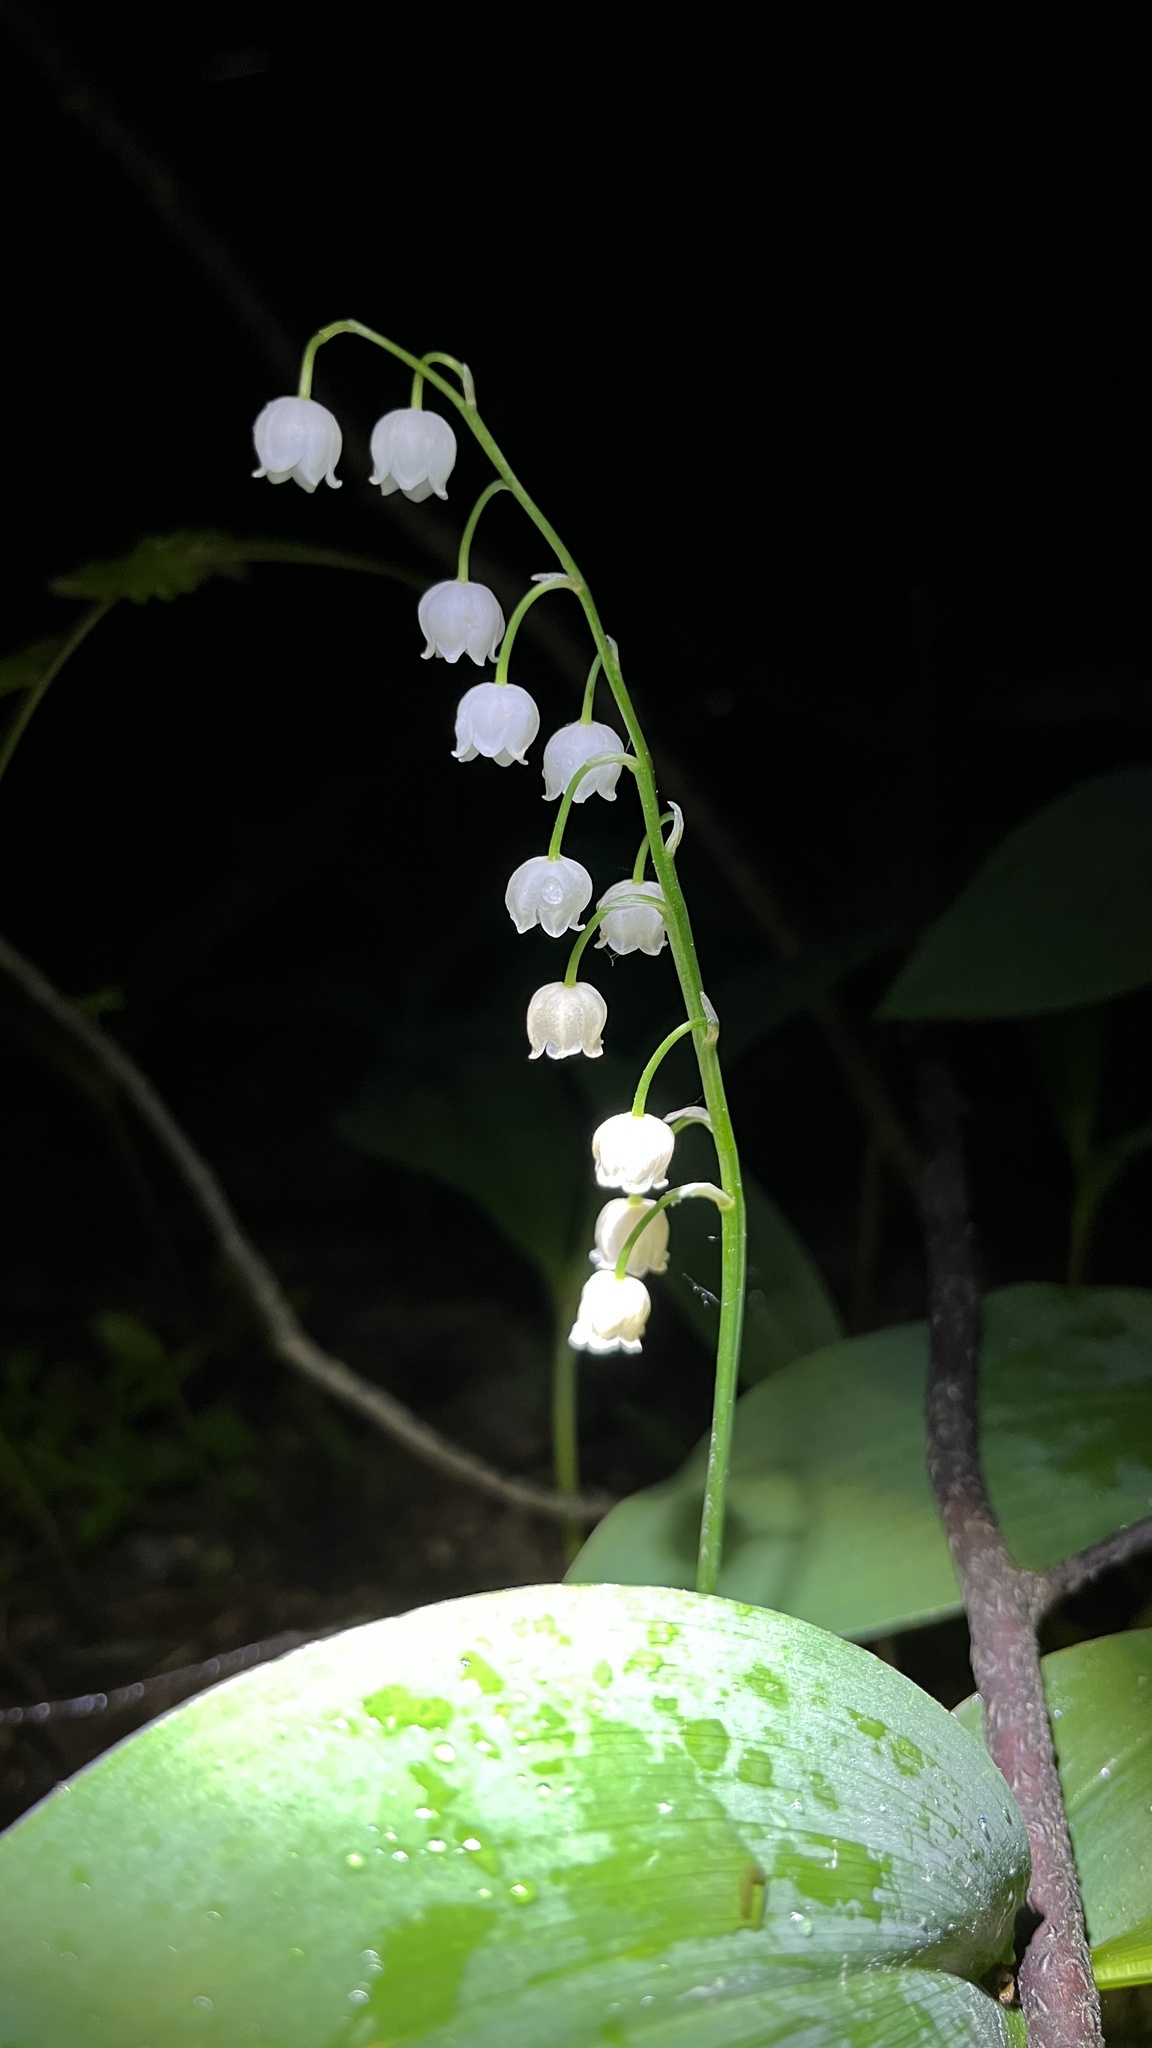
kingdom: Plantae
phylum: Tracheophyta
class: Liliopsida
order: Asparagales
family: Asparagaceae
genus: Convallaria
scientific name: Convallaria majalis
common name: Lily-of-the-valley
